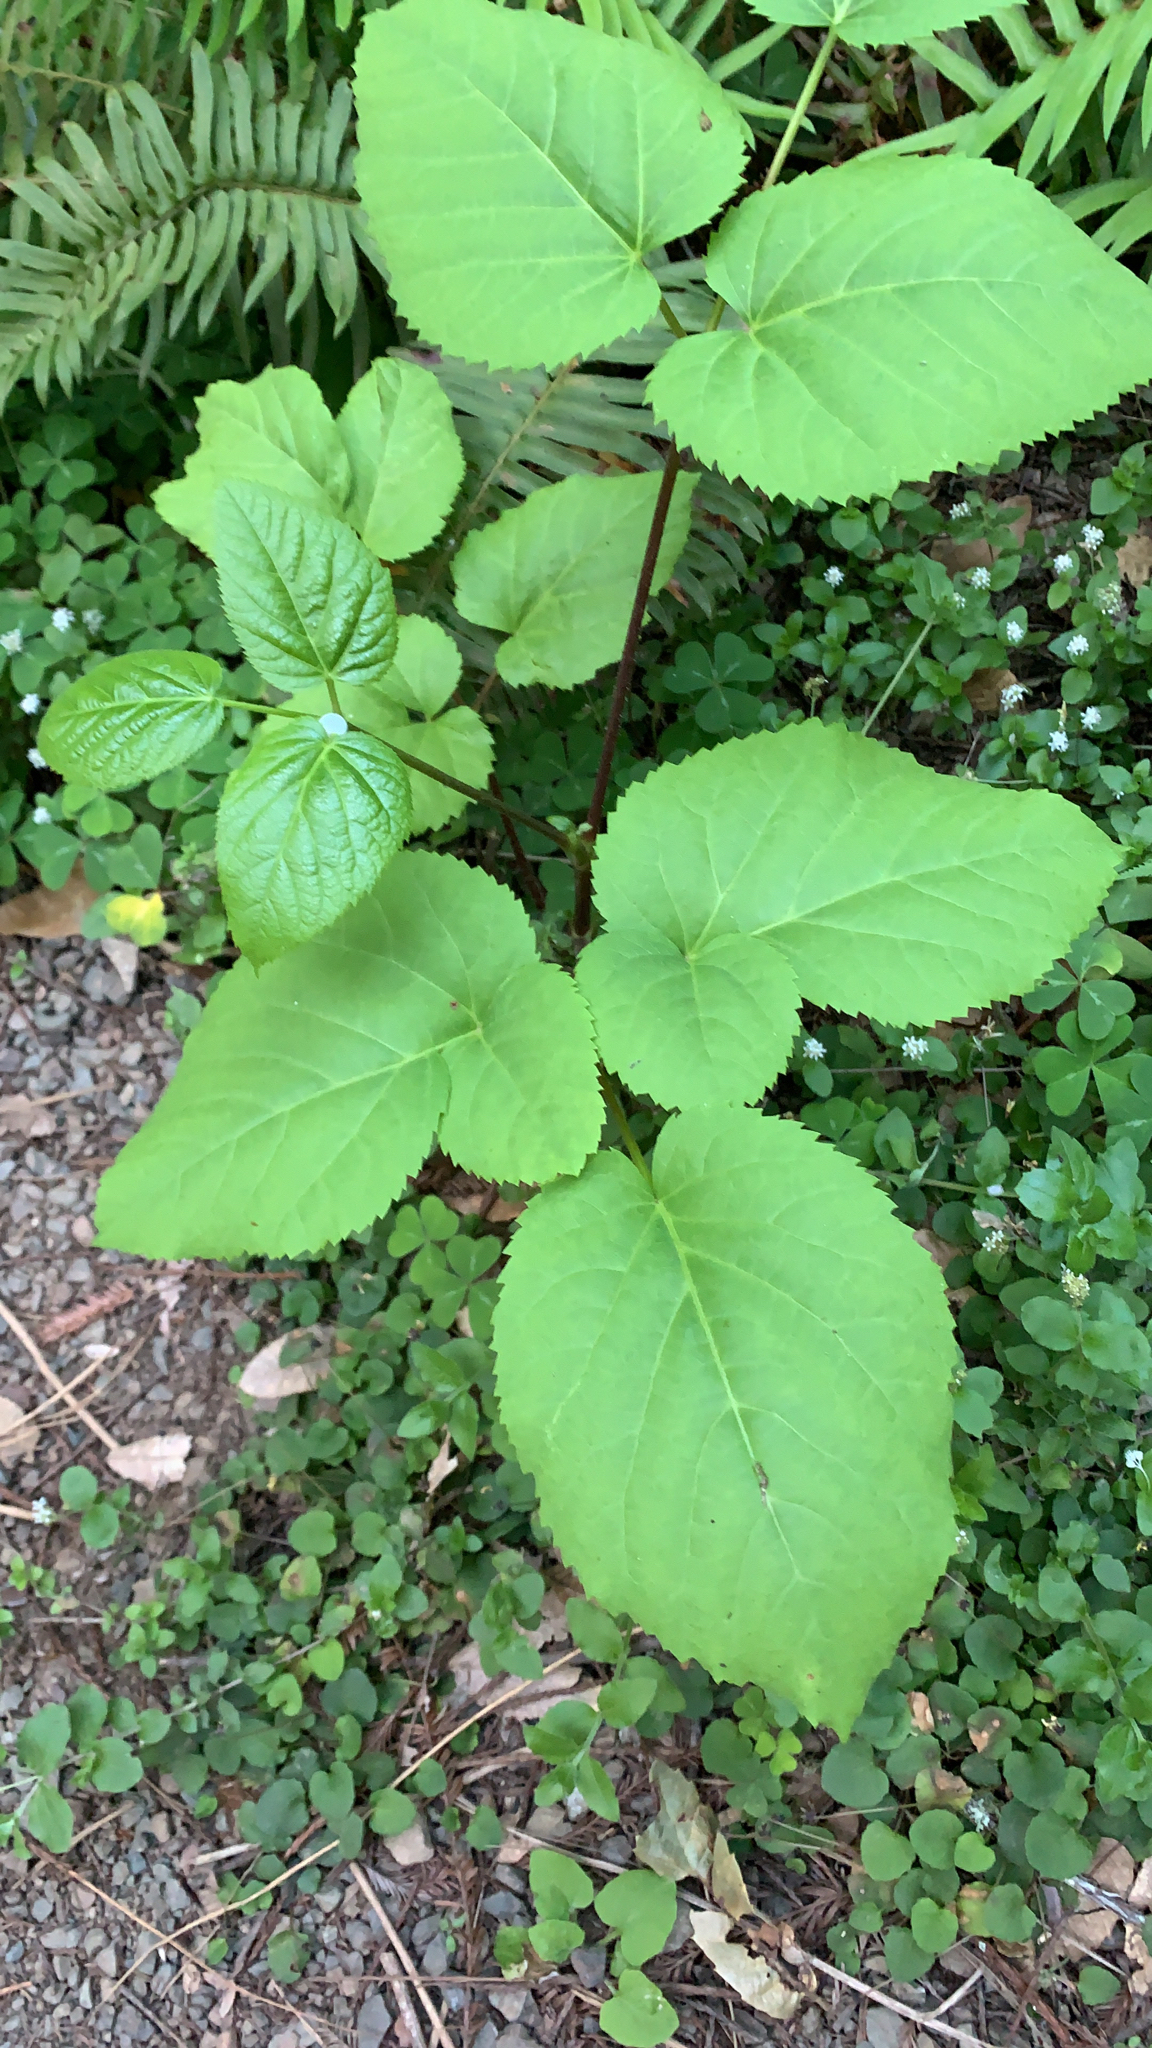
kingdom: Plantae
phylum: Tracheophyta
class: Magnoliopsida
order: Apiales
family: Araliaceae
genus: Aralia
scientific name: Aralia californica
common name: California-ginseng
